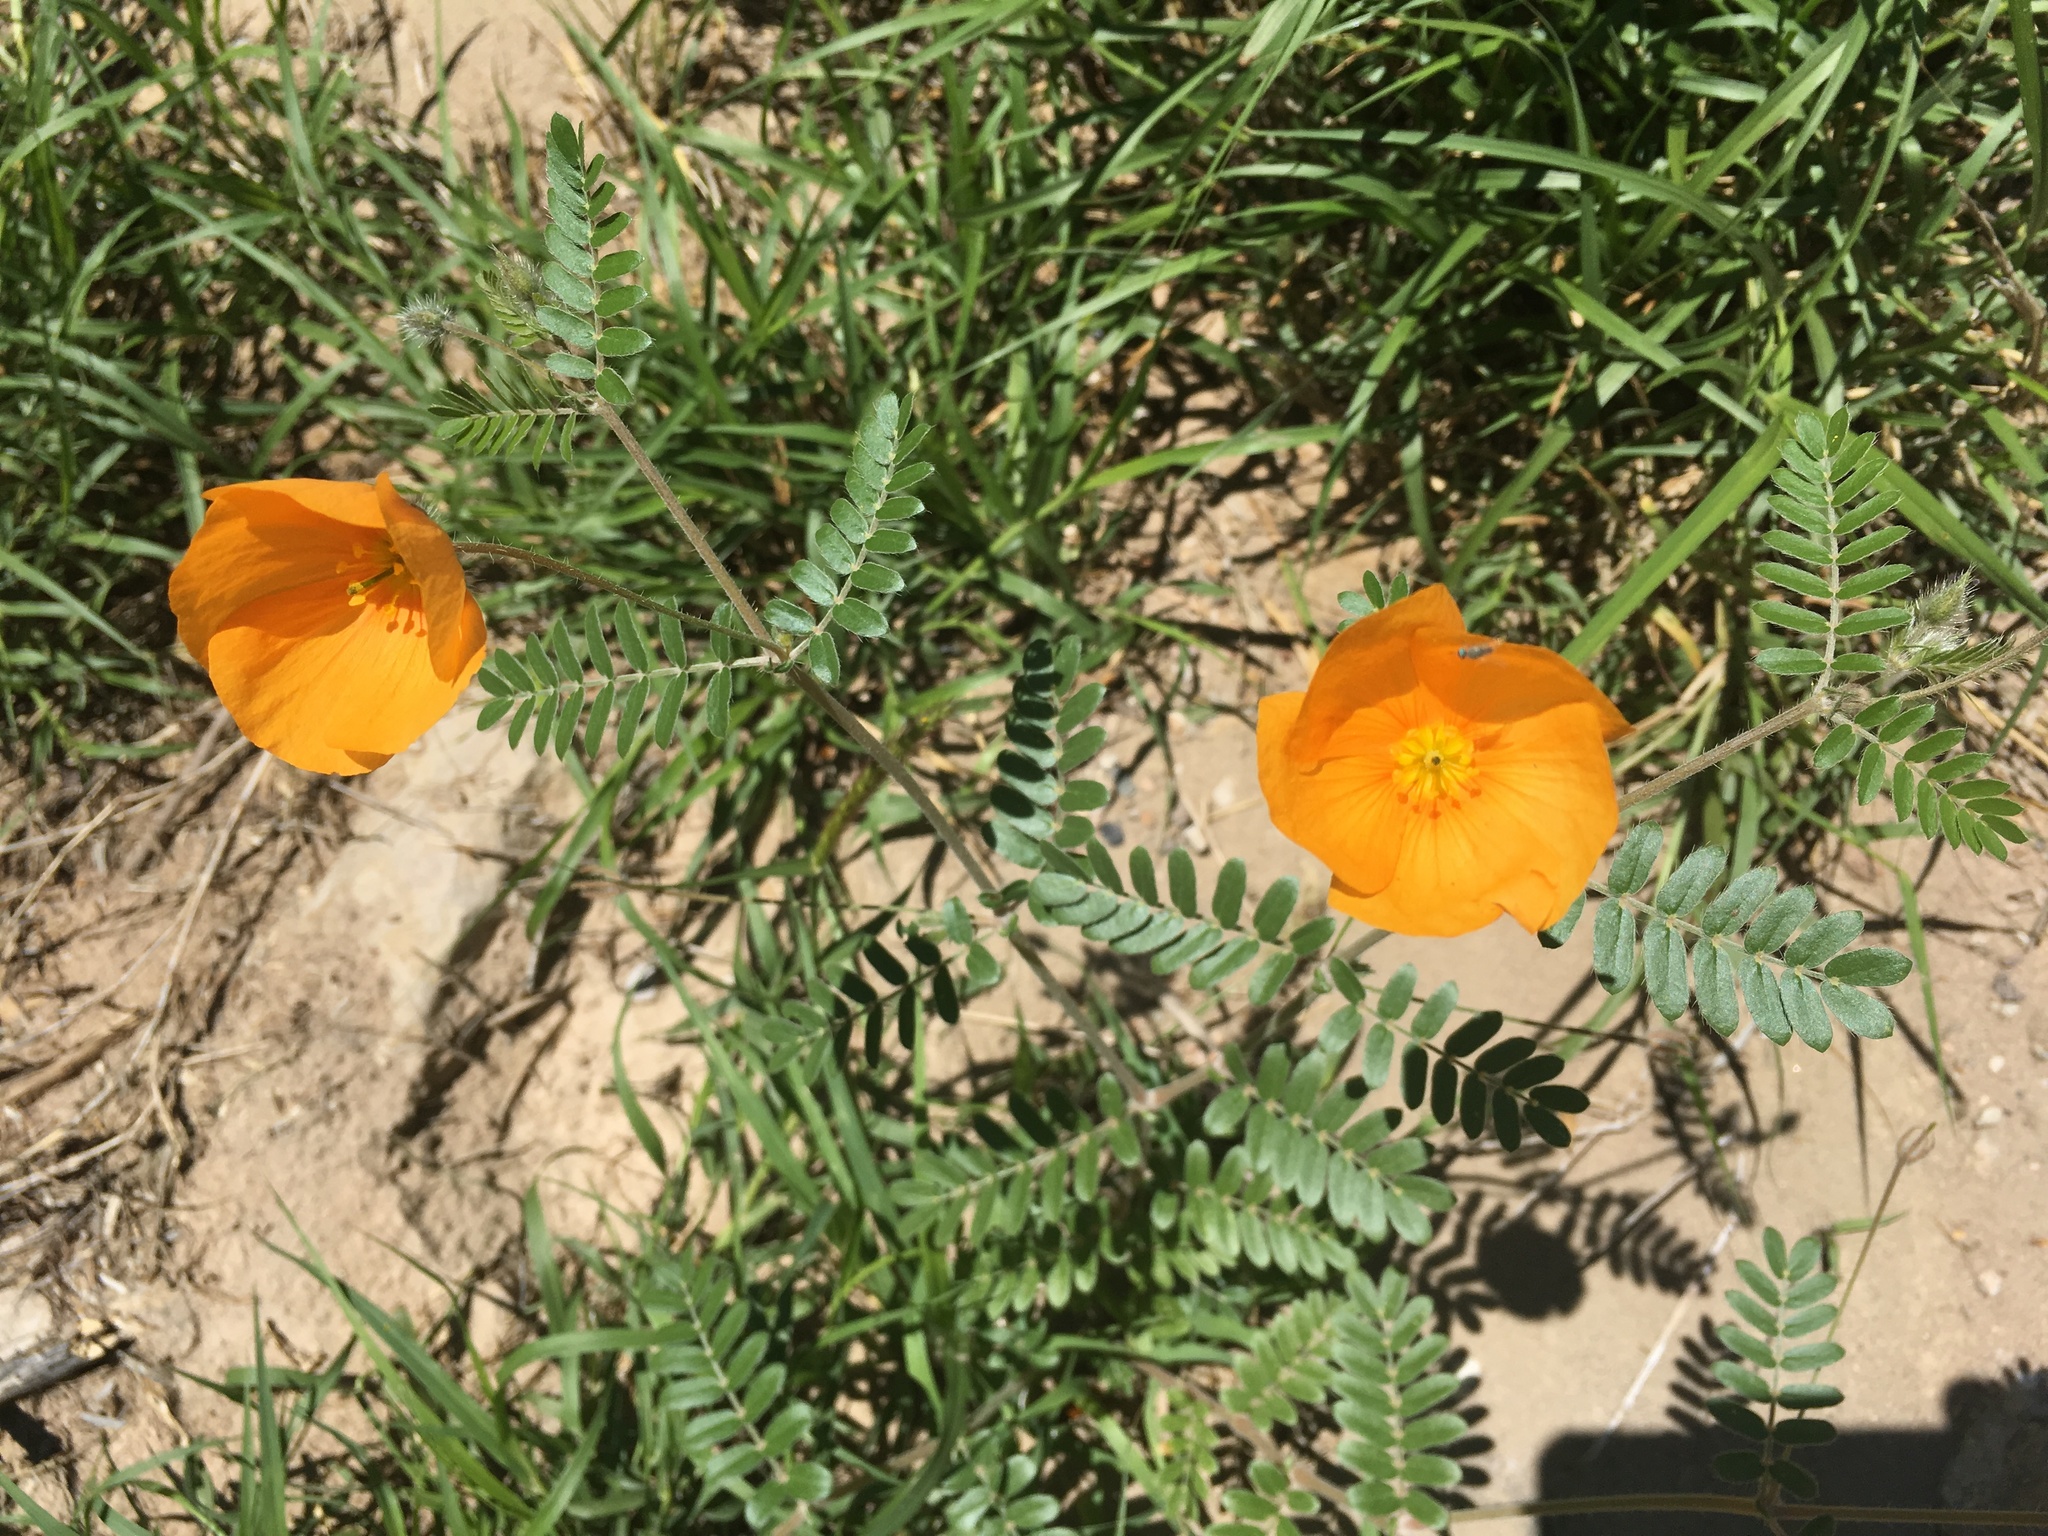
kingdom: Plantae
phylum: Tracheophyta
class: Magnoliopsida
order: Zygophyllales
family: Zygophyllaceae
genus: Kallstroemia
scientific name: Kallstroemia grandiflora
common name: Arizona-poppy
